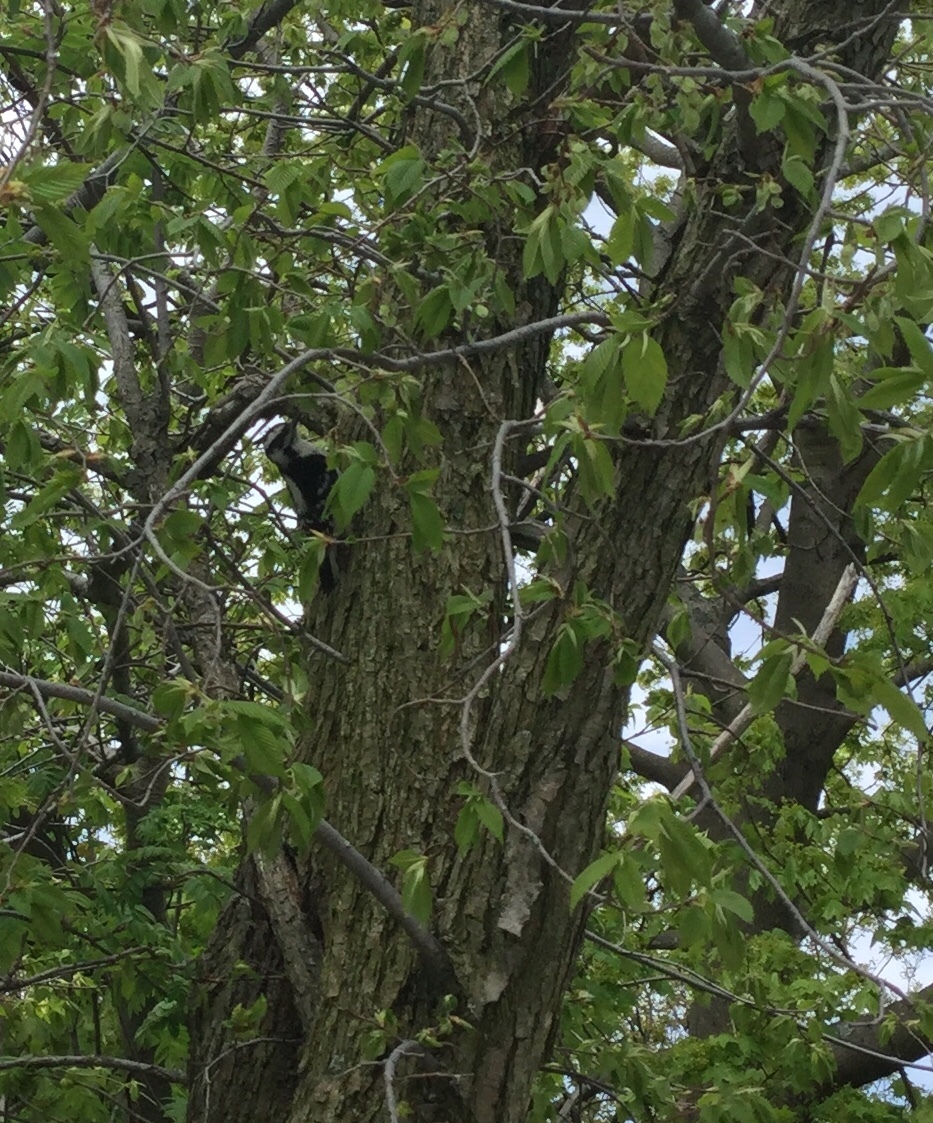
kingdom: Animalia
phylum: Chordata
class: Aves
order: Piciformes
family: Picidae
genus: Dryobates
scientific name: Dryobates pubescens
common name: Downy woodpecker
